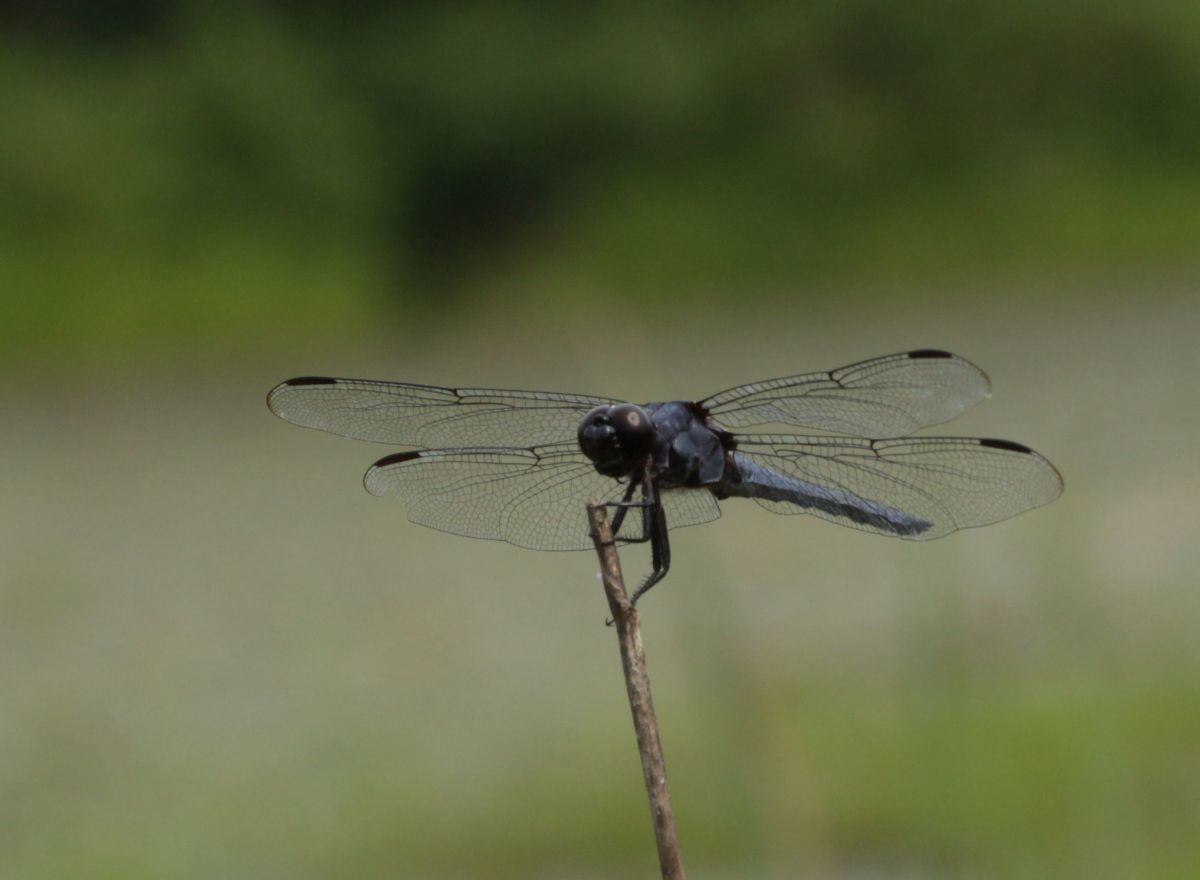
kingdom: Animalia
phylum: Arthropoda
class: Insecta
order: Odonata
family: Libellulidae
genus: Libellula
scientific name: Libellula incesta
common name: Slaty skimmer
